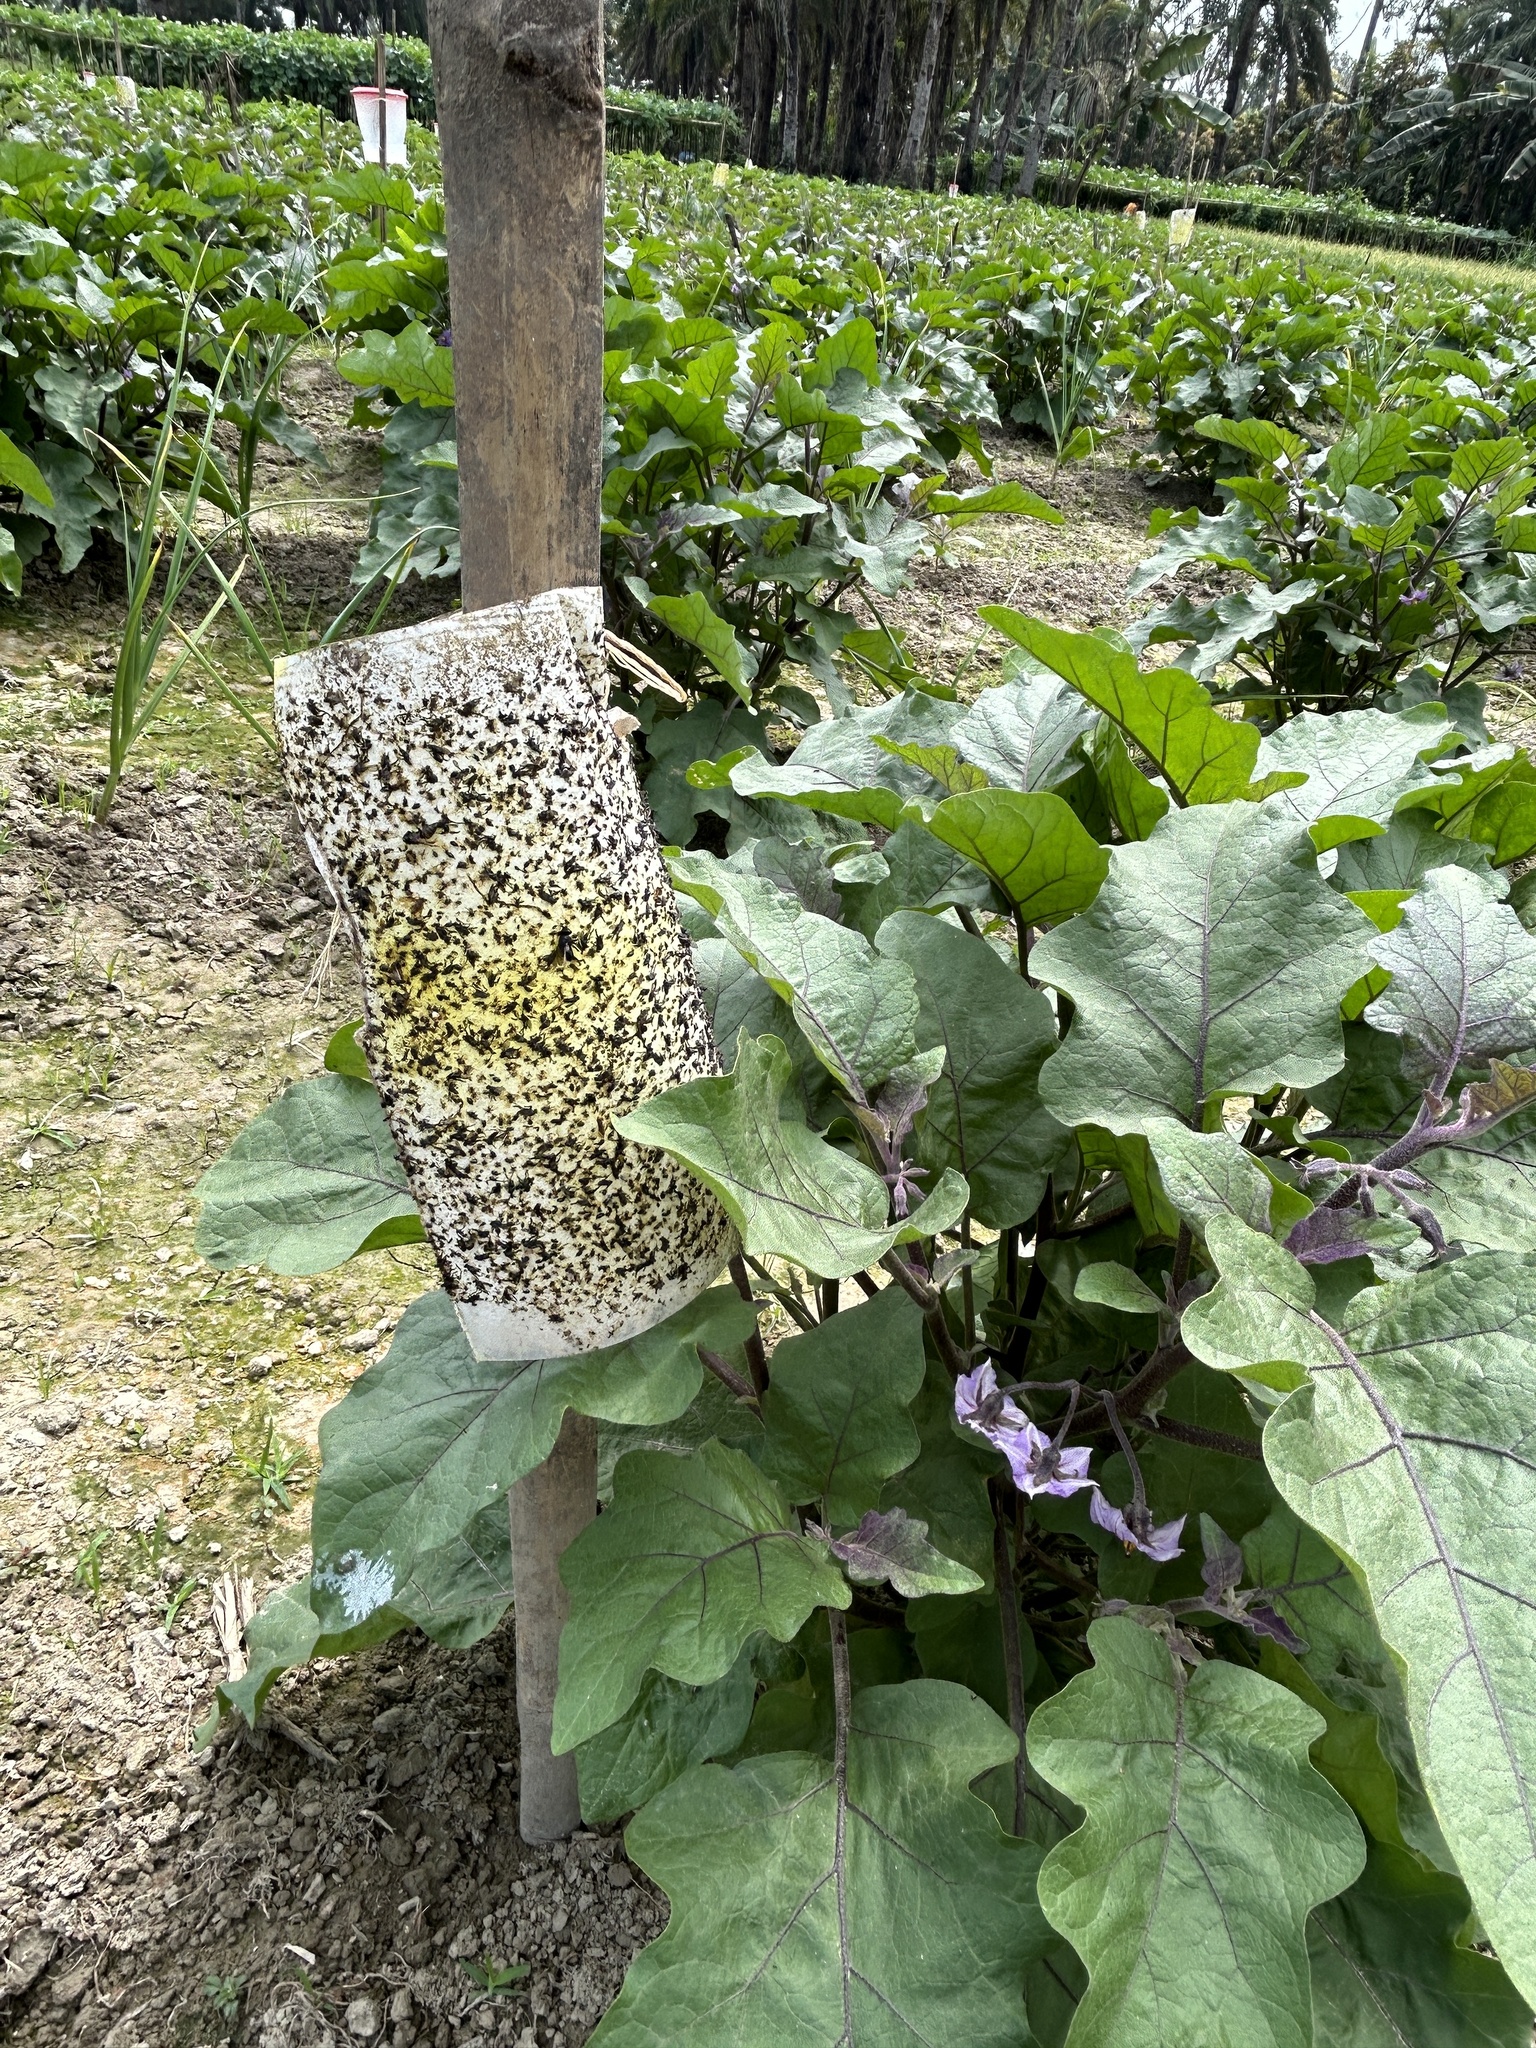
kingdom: Plantae
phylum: Tracheophyta
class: Magnoliopsida
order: Solanales
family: Solanaceae
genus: Solanum
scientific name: Solanum melongena
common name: Eggplant
